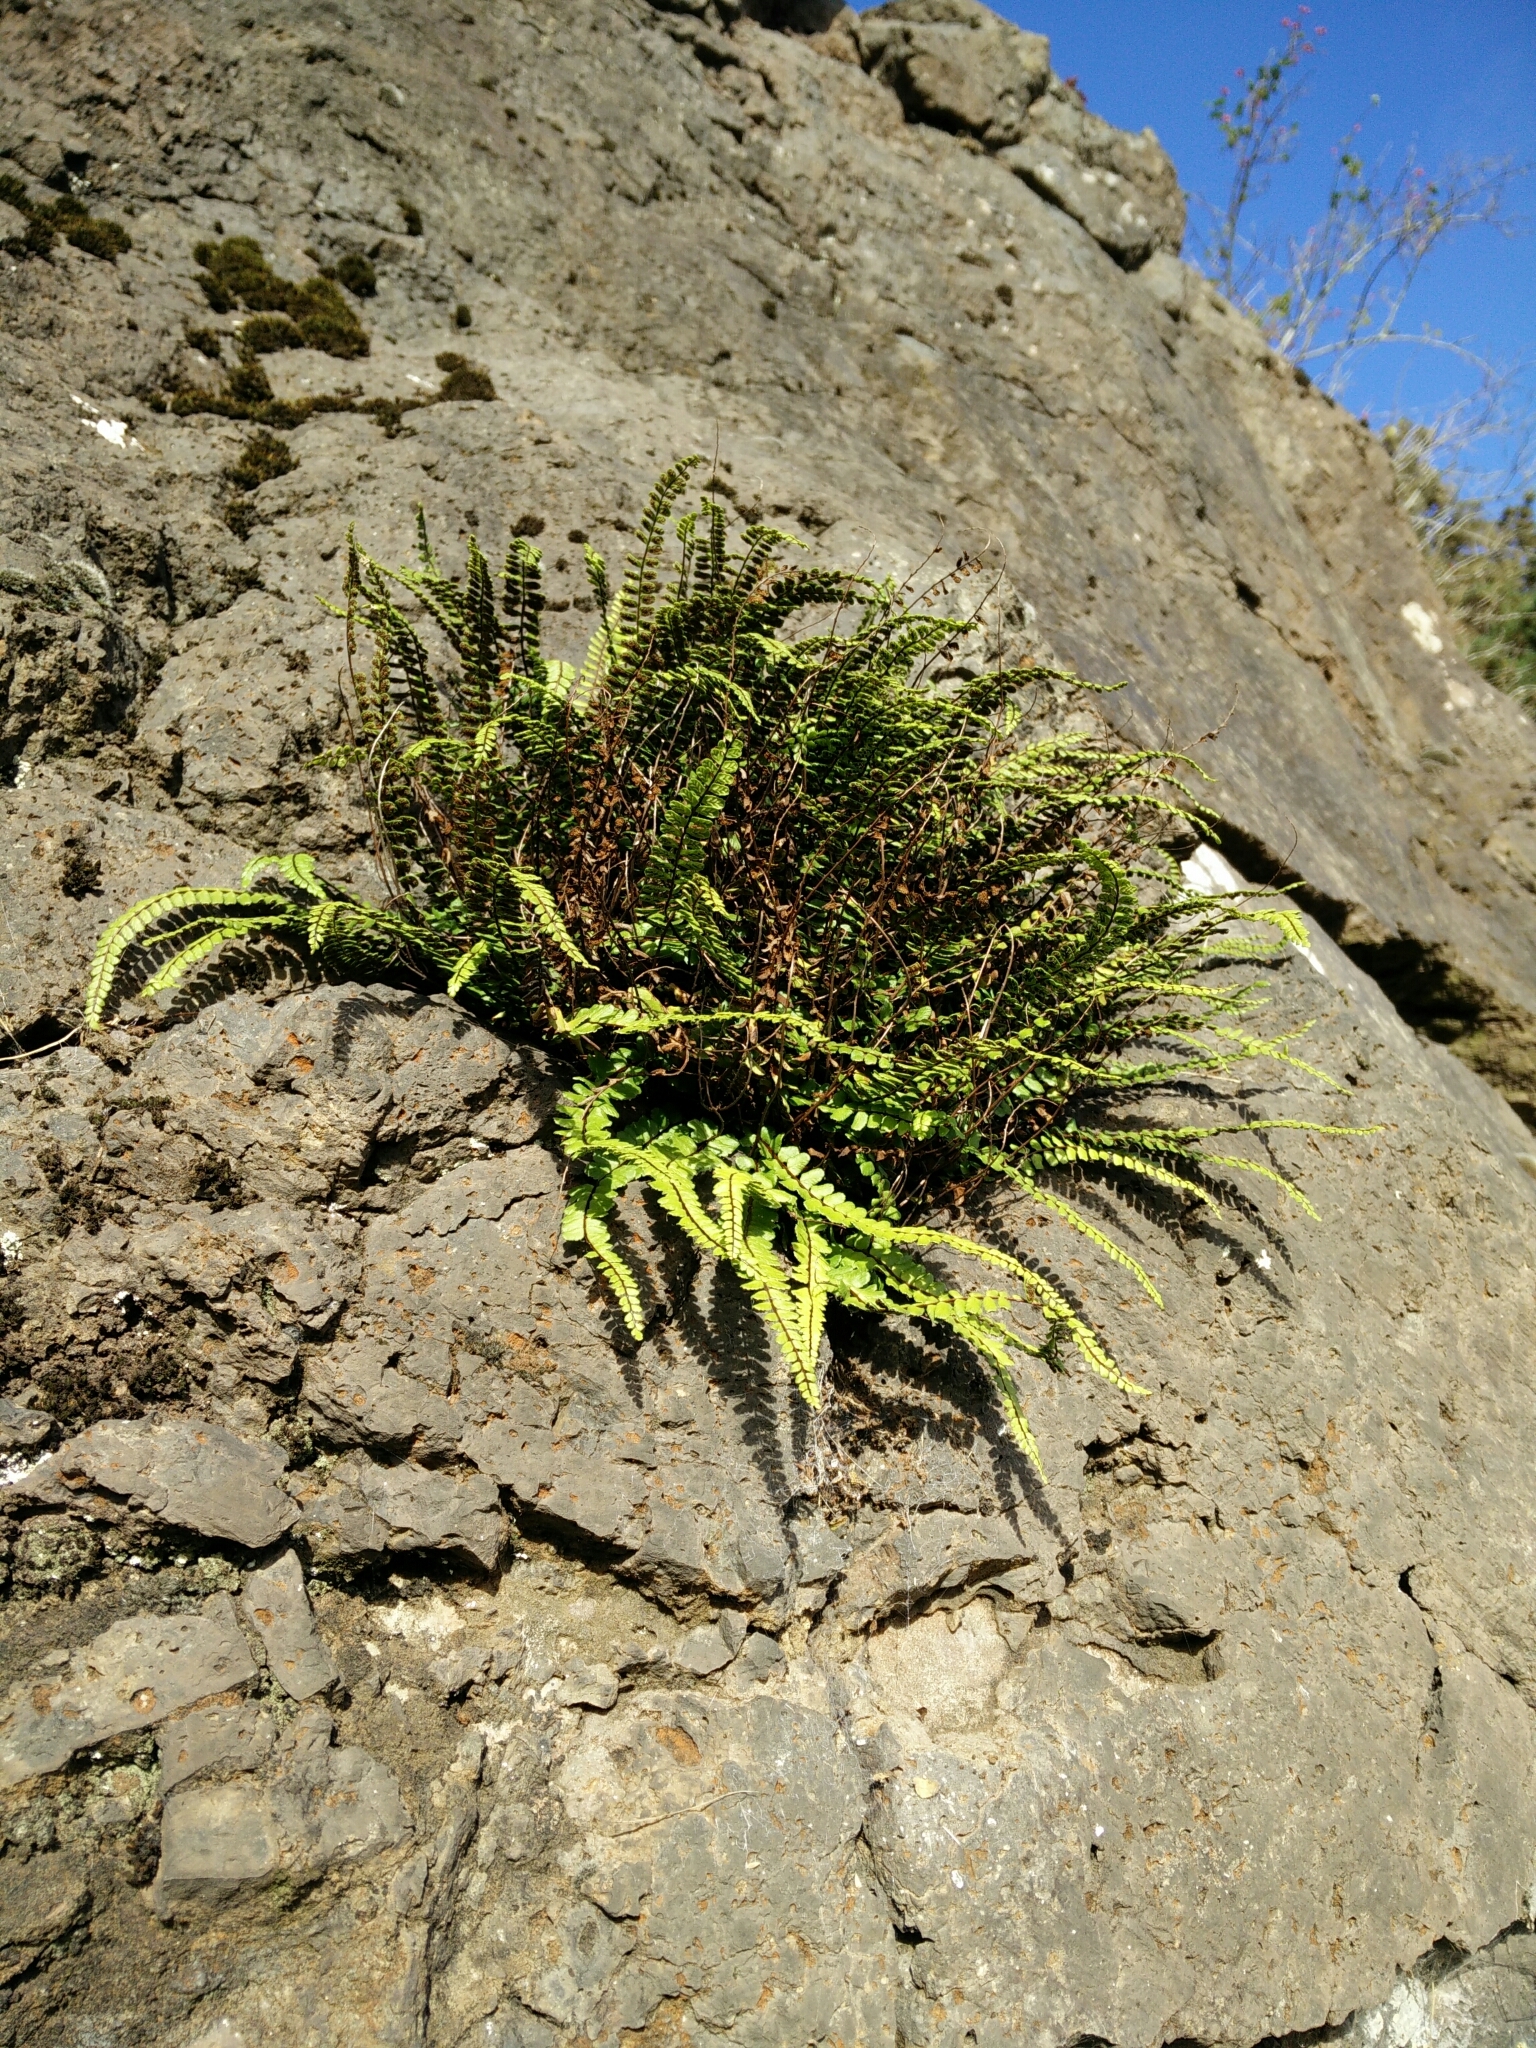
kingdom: Plantae
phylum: Tracheophyta
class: Polypodiopsida
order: Polypodiales
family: Aspleniaceae
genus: Asplenium
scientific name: Asplenium trichomanes
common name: Maidenhair spleenwort
